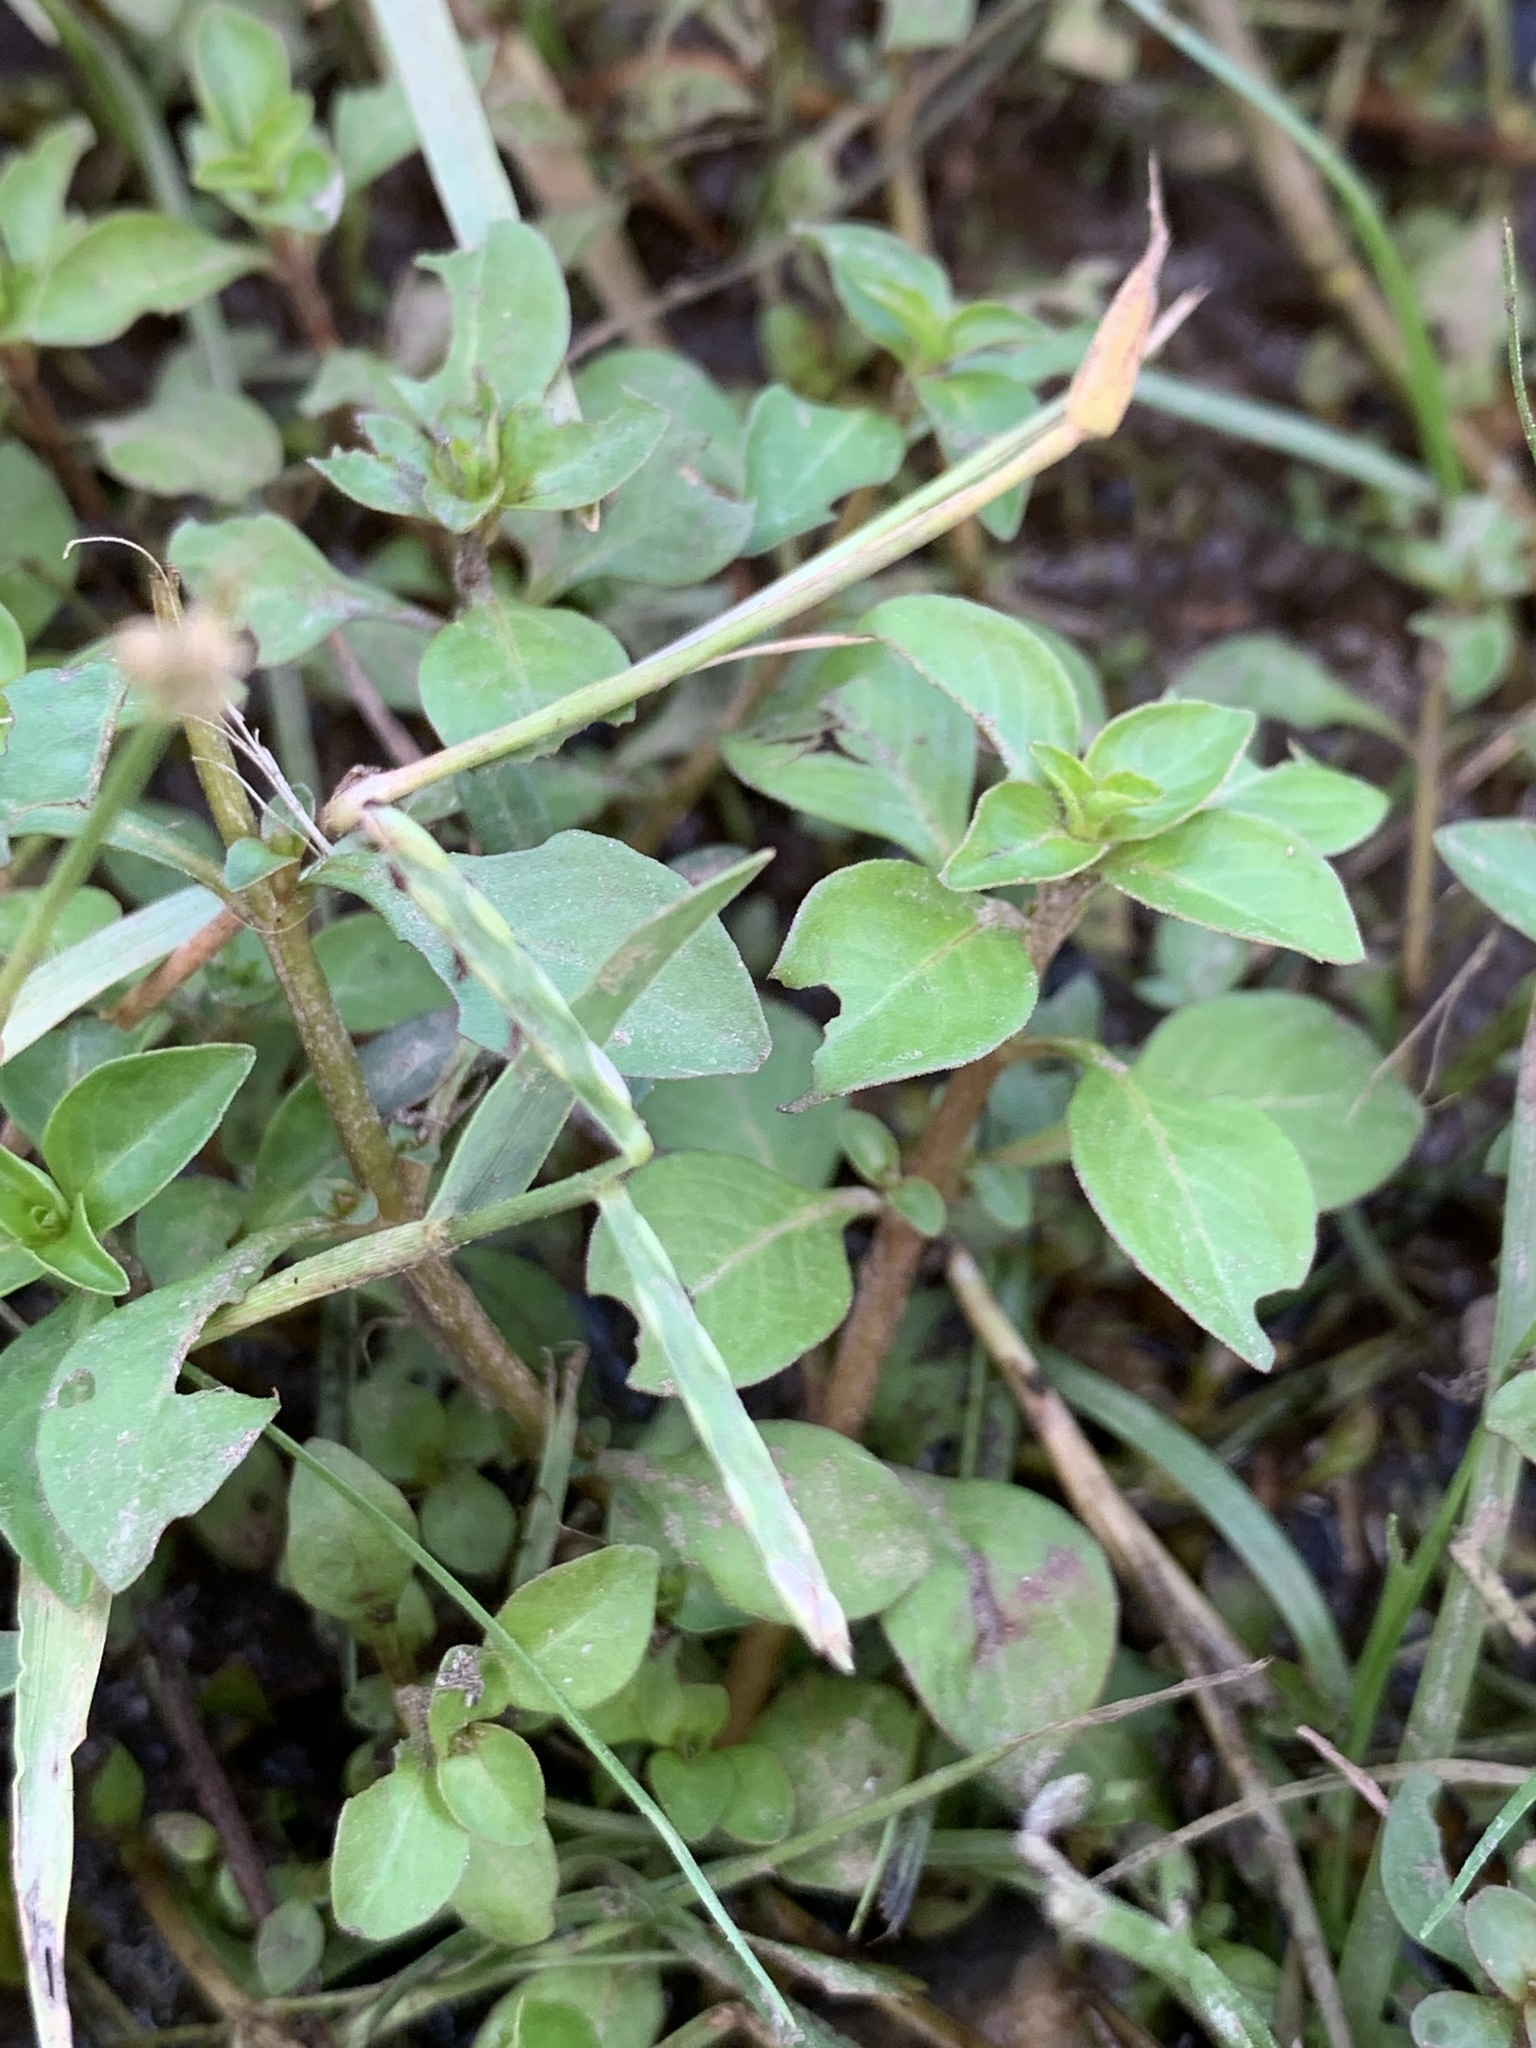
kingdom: Plantae
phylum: Tracheophyta
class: Magnoliopsida
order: Myrtales
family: Onagraceae
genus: Ludwigia
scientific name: Ludwigia palustris
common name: Hampshire-purslane
